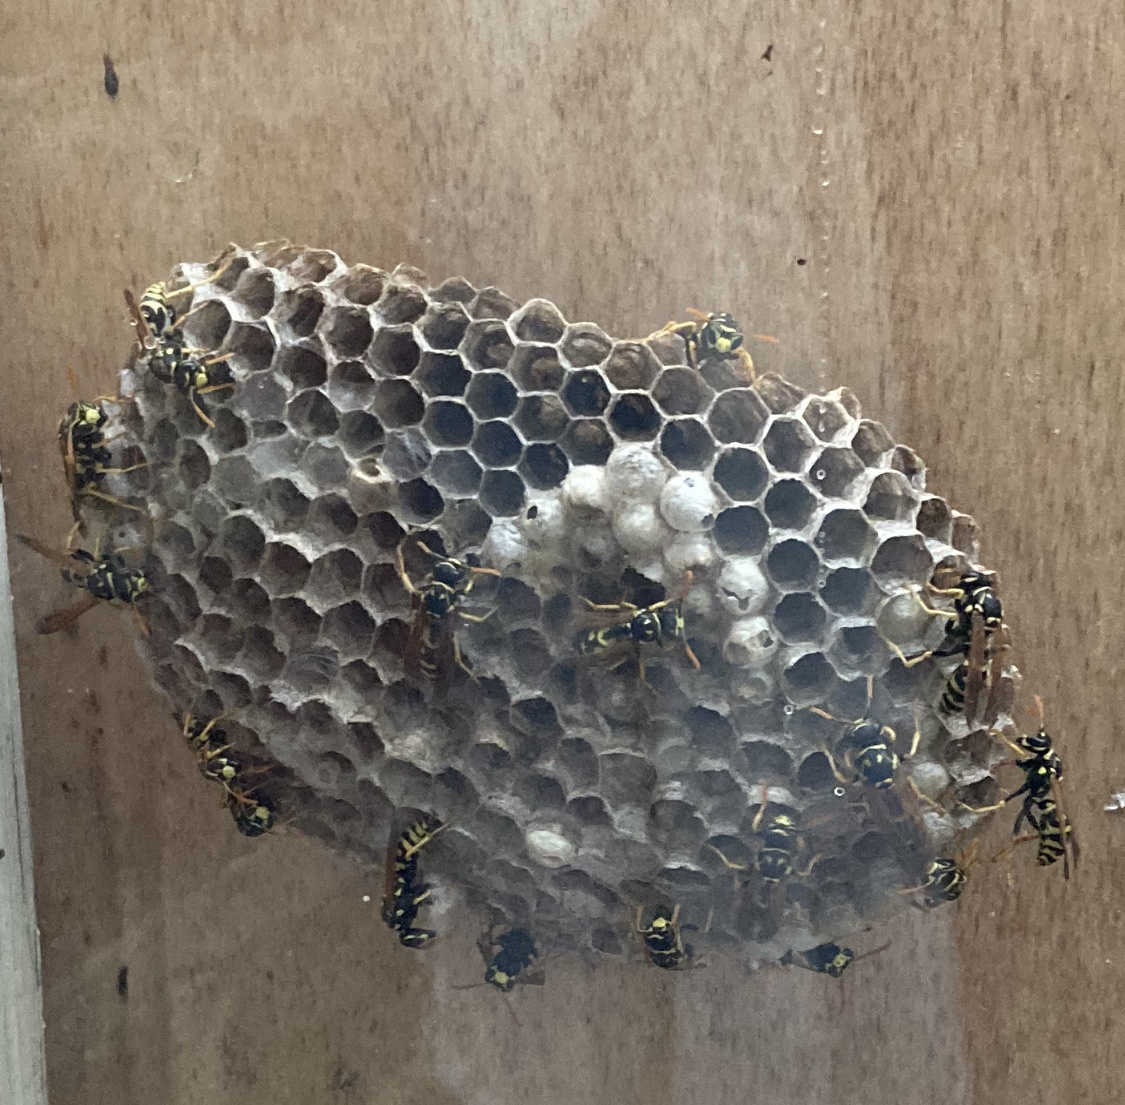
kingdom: Animalia
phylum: Arthropoda
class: Insecta
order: Hymenoptera
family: Eumenidae
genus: Polistes
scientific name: Polistes dominula
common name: Paper wasp
